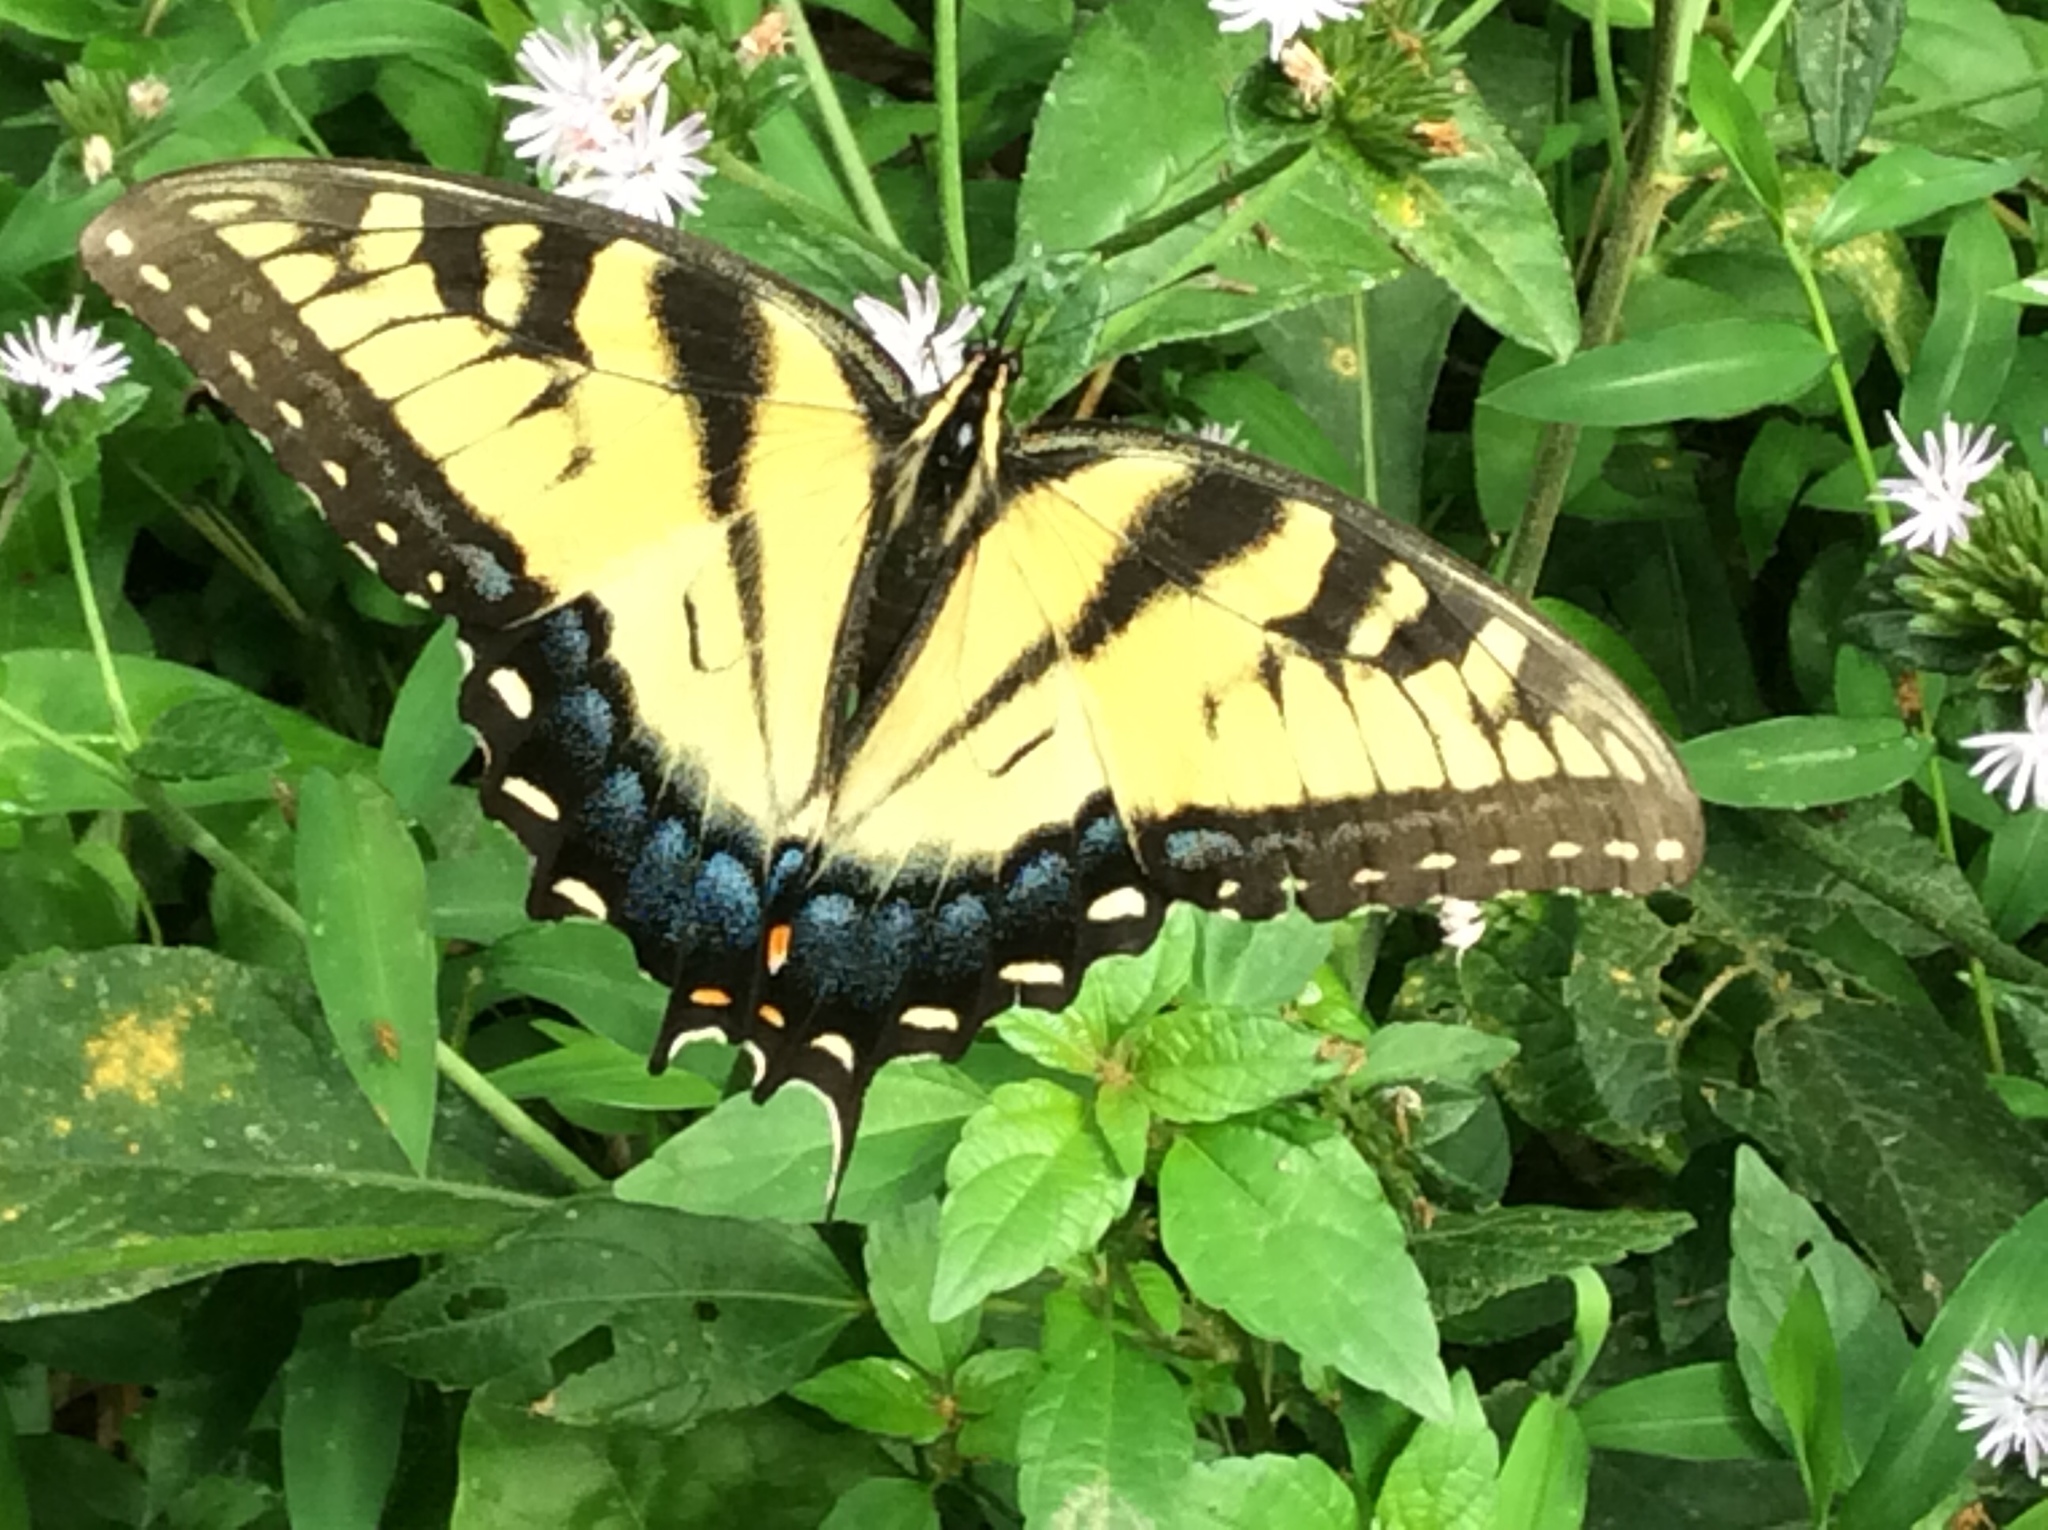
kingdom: Animalia
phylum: Arthropoda
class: Insecta
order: Lepidoptera
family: Papilionidae
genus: Papilio
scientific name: Papilio glaucus
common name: Tiger swallowtail
